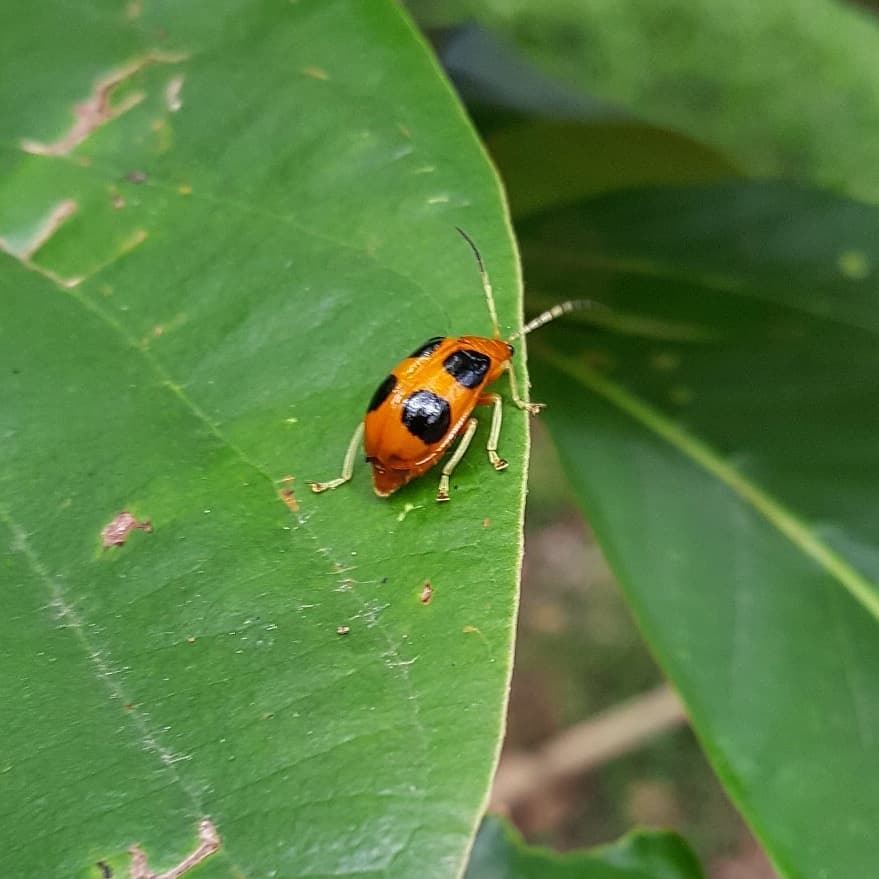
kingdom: Animalia
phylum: Arthropoda
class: Insecta
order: Coleoptera
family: Chrysomelidae
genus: Isotes
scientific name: Isotes
